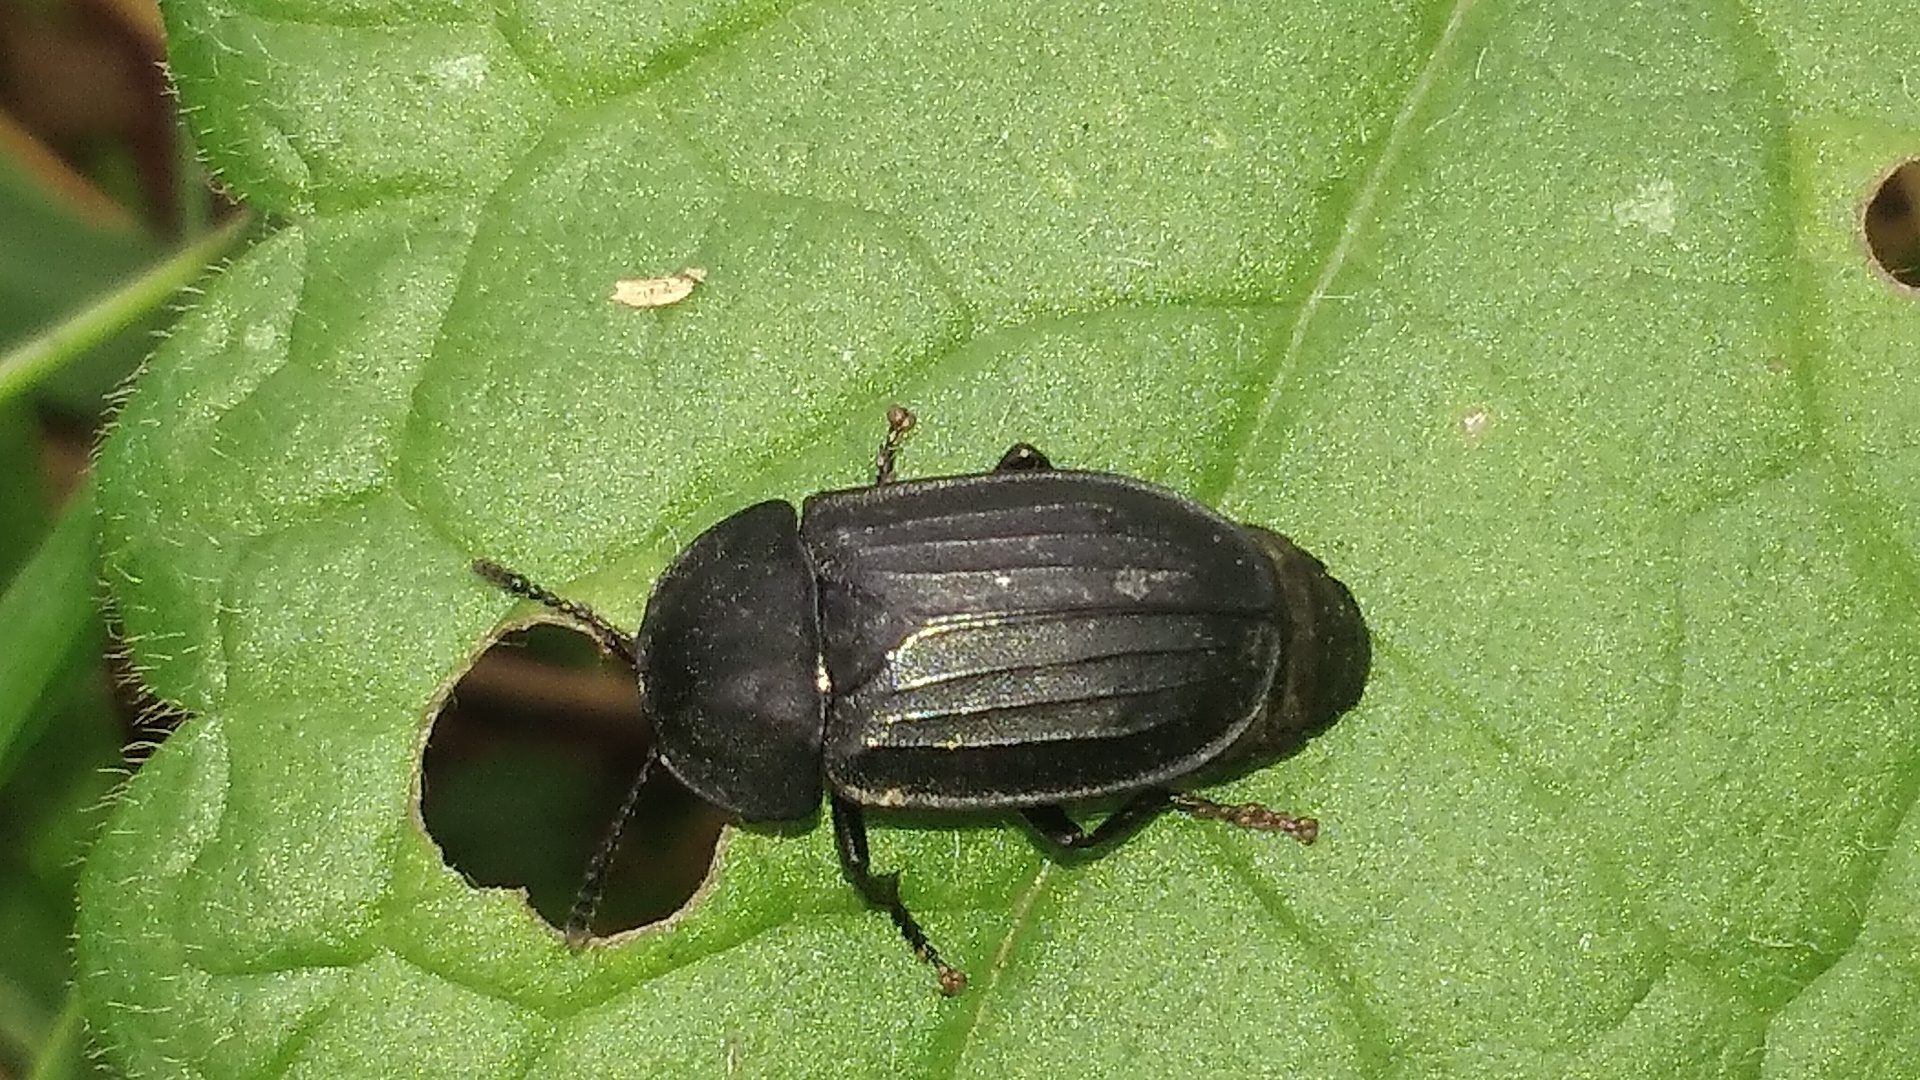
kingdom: Animalia
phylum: Arthropoda
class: Insecta
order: Coleoptera
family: Staphylinidae
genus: Silpha
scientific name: Silpha tristis
